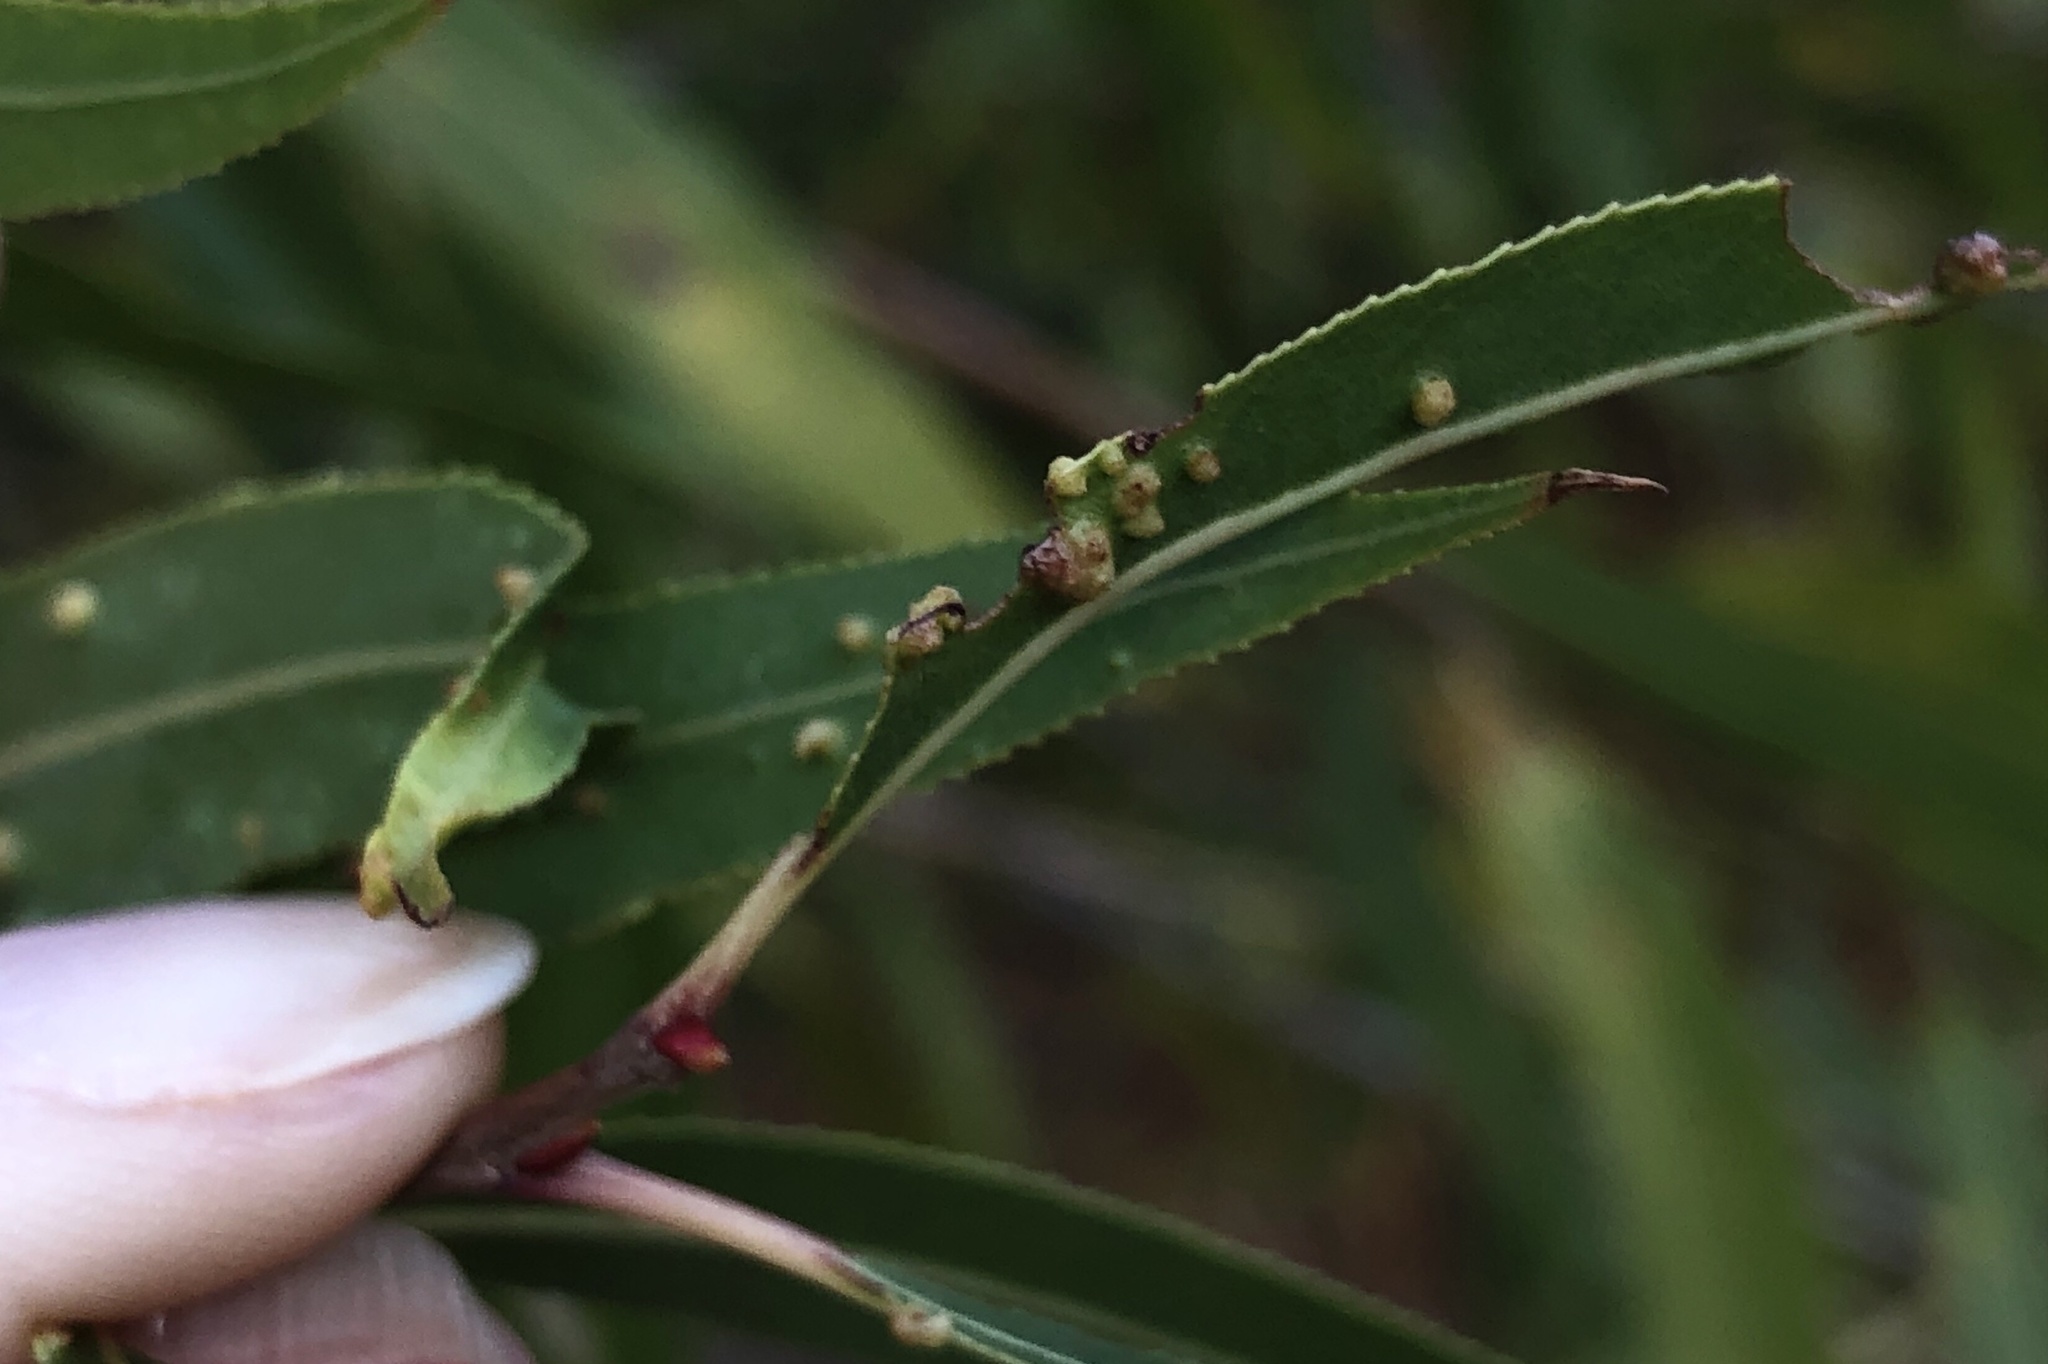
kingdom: Animalia
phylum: Arthropoda
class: Arachnida
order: Trombidiformes
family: Eriophyidae
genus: Aculus
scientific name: Aculus tetanothrix
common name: Willow bead gall mite
